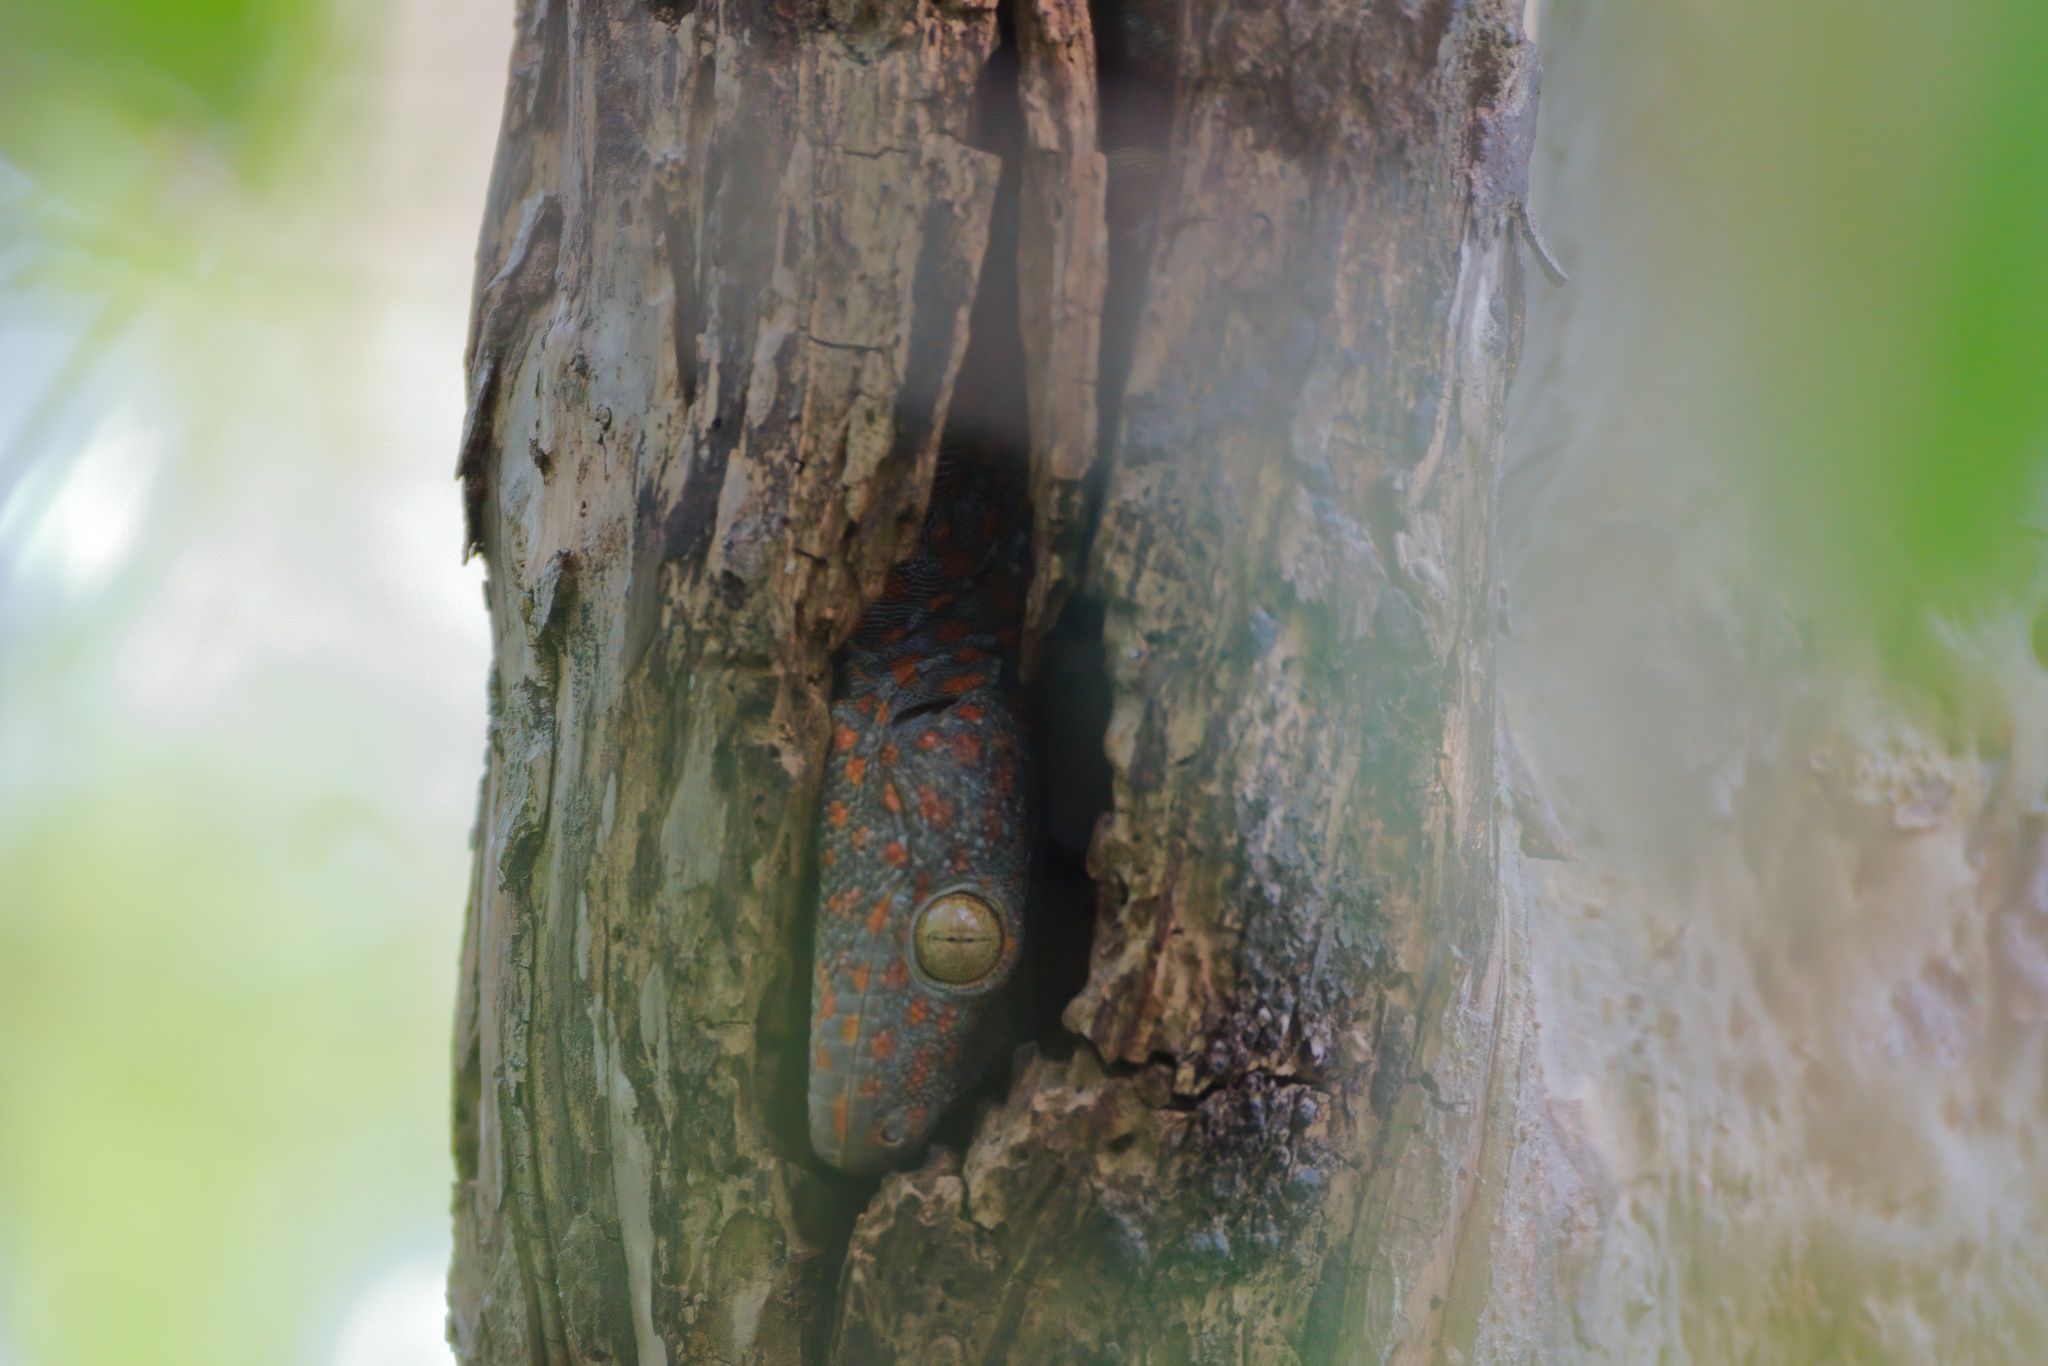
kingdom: Animalia
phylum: Chordata
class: Squamata
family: Gekkonidae
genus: Gekko
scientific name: Gekko gecko
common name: Tokay gecko
